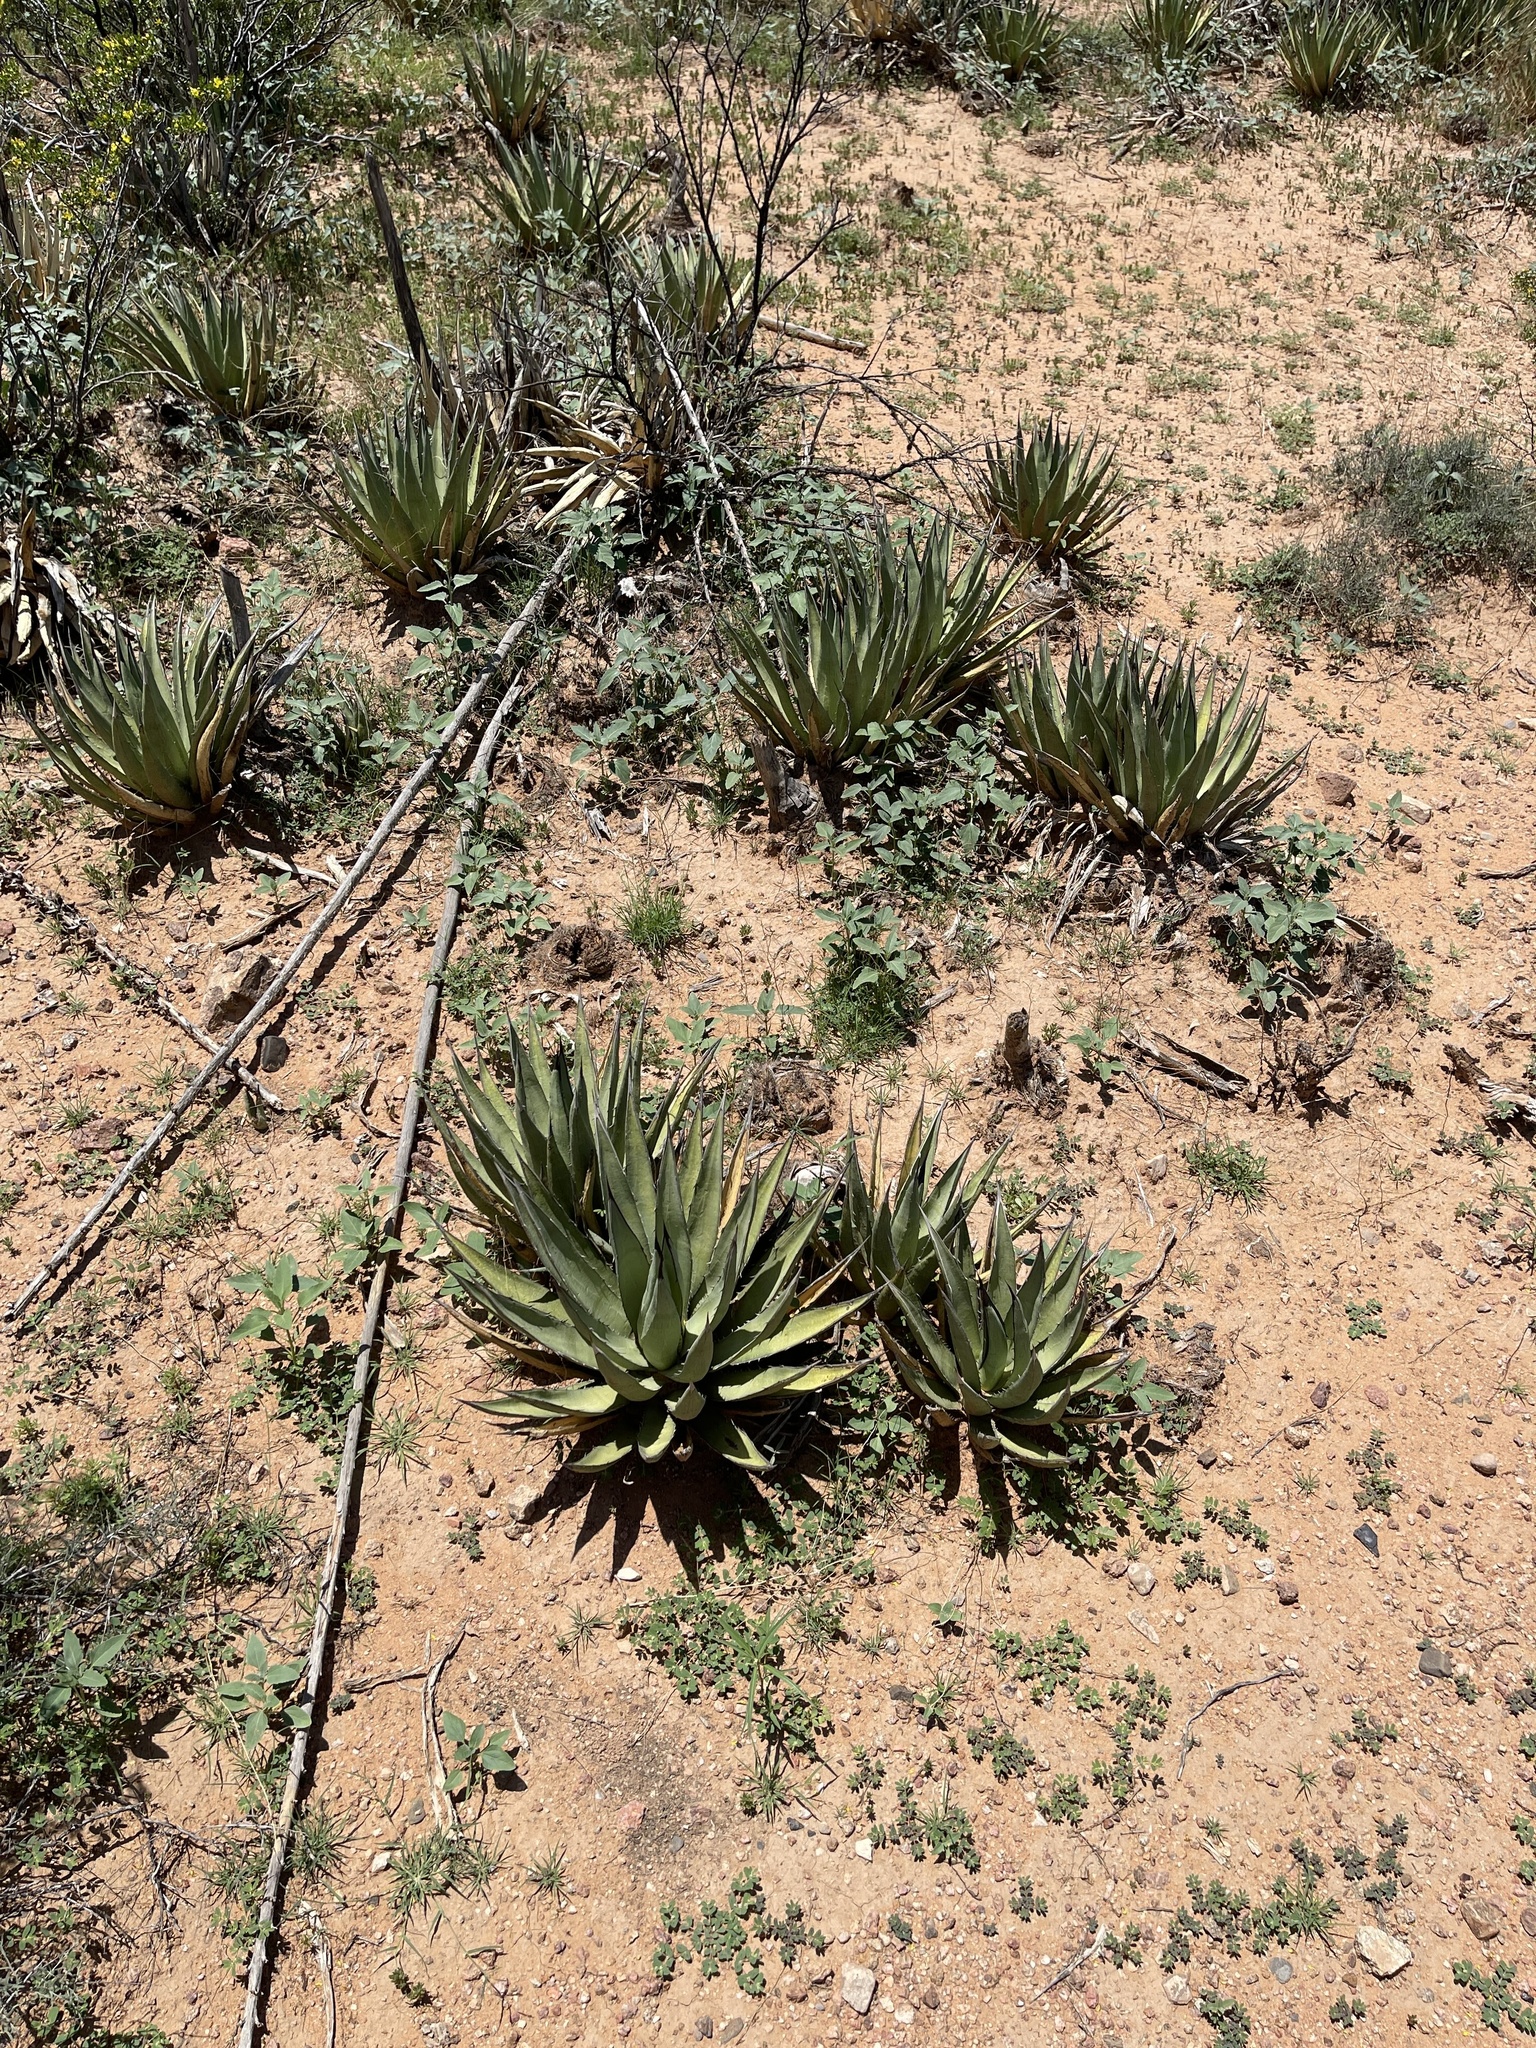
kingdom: Plantae
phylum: Tracheophyta
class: Liliopsida
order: Asparagales
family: Asparagaceae
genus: Agave
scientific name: Agave lechuguilla
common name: Lecheguilla agave
